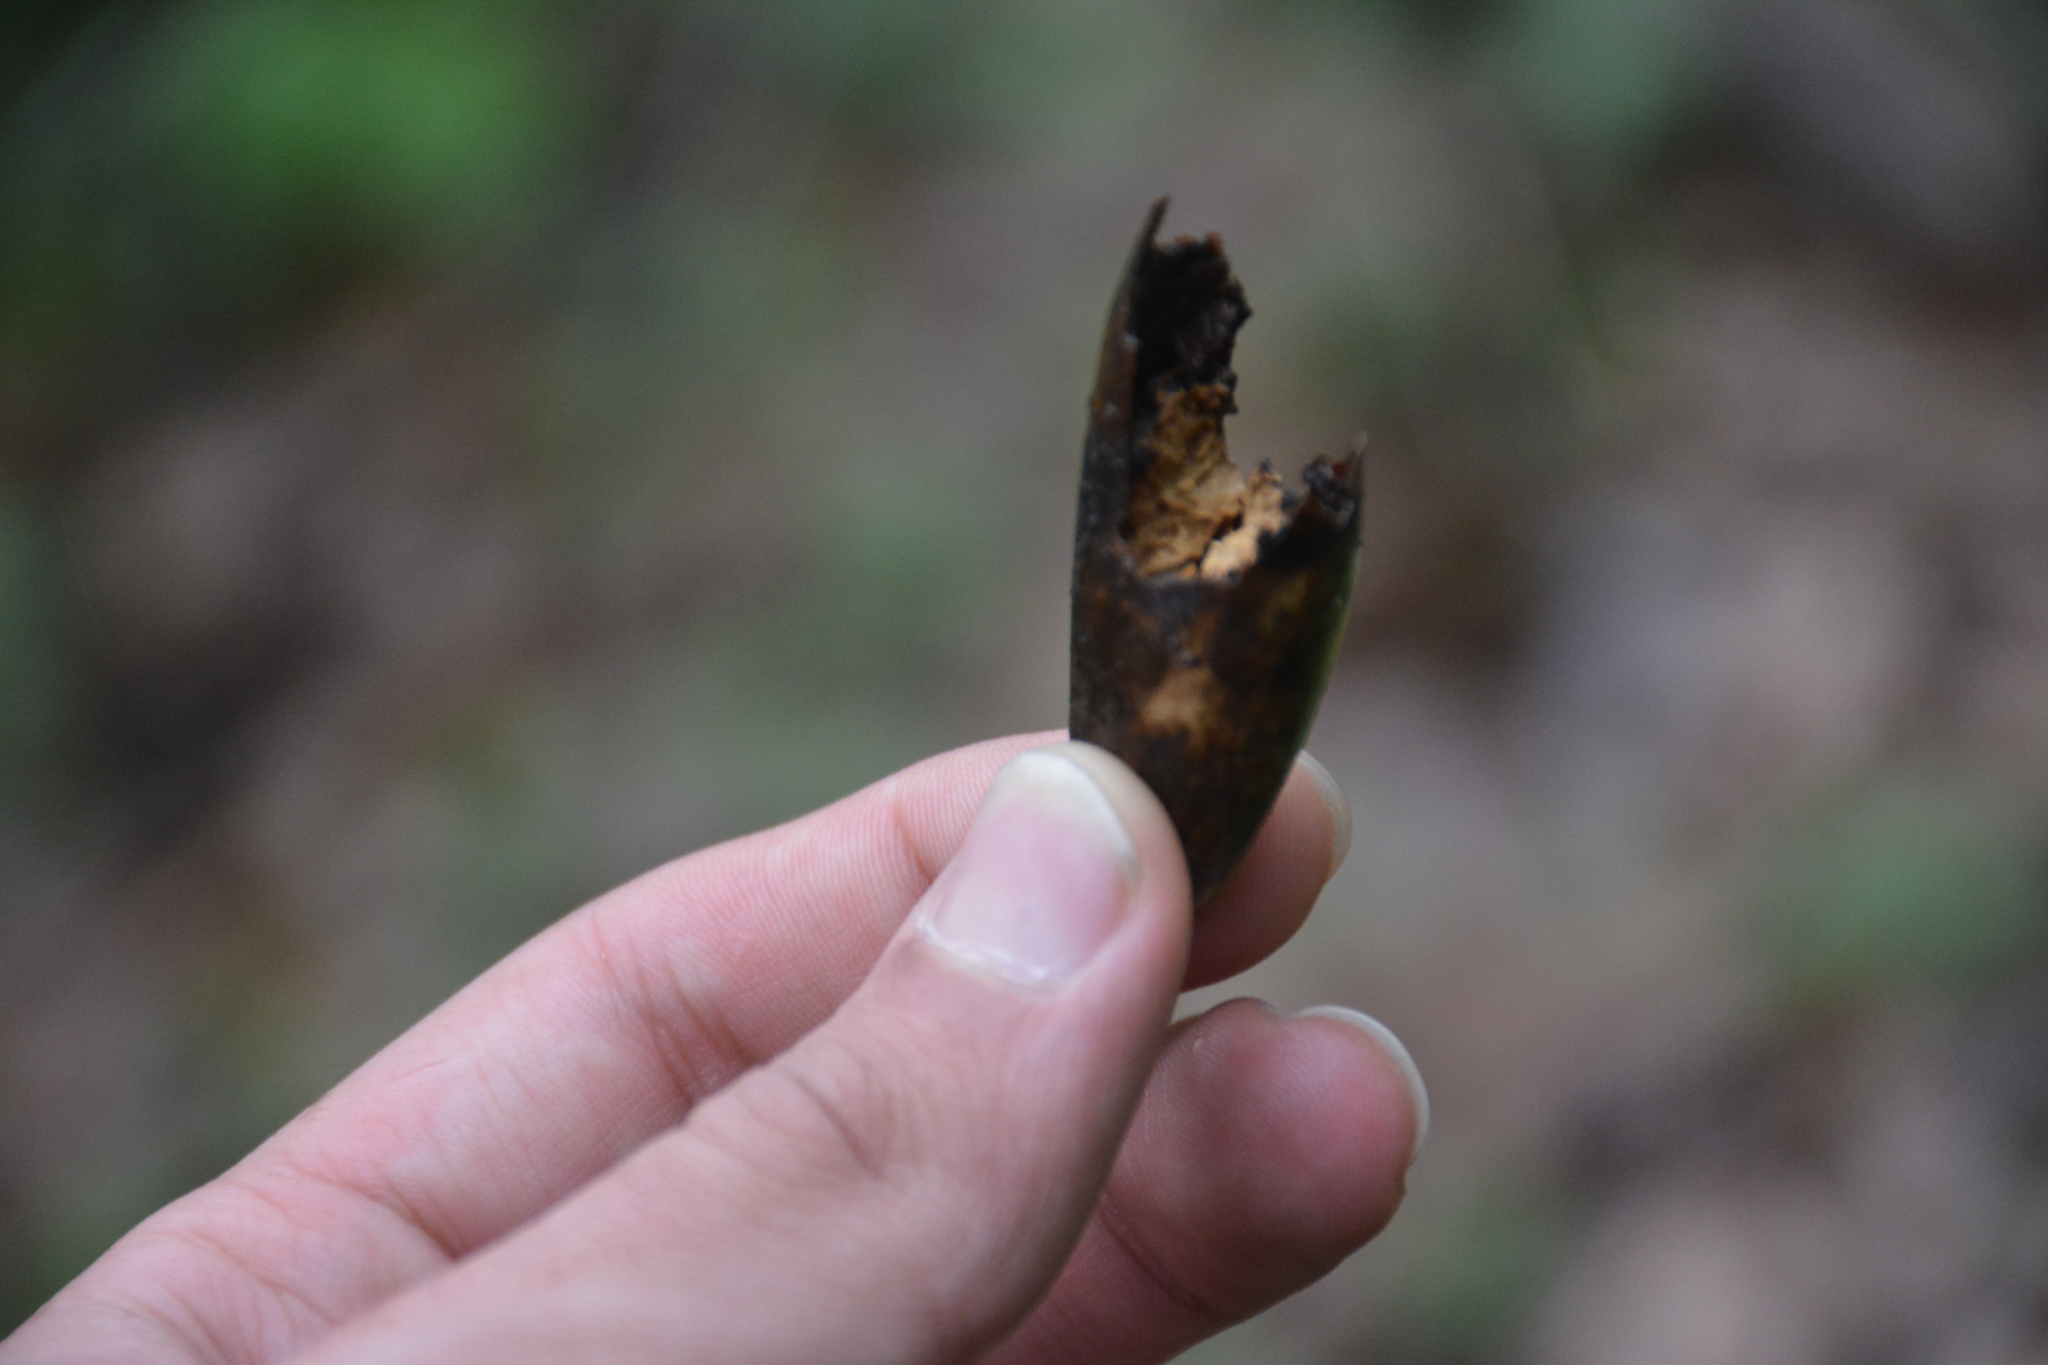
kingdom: Animalia
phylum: Chordata
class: Mammalia
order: Rodentia
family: Sciuridae
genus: Sciurus
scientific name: Sciurus anomalus
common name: Caucasian squirrel
